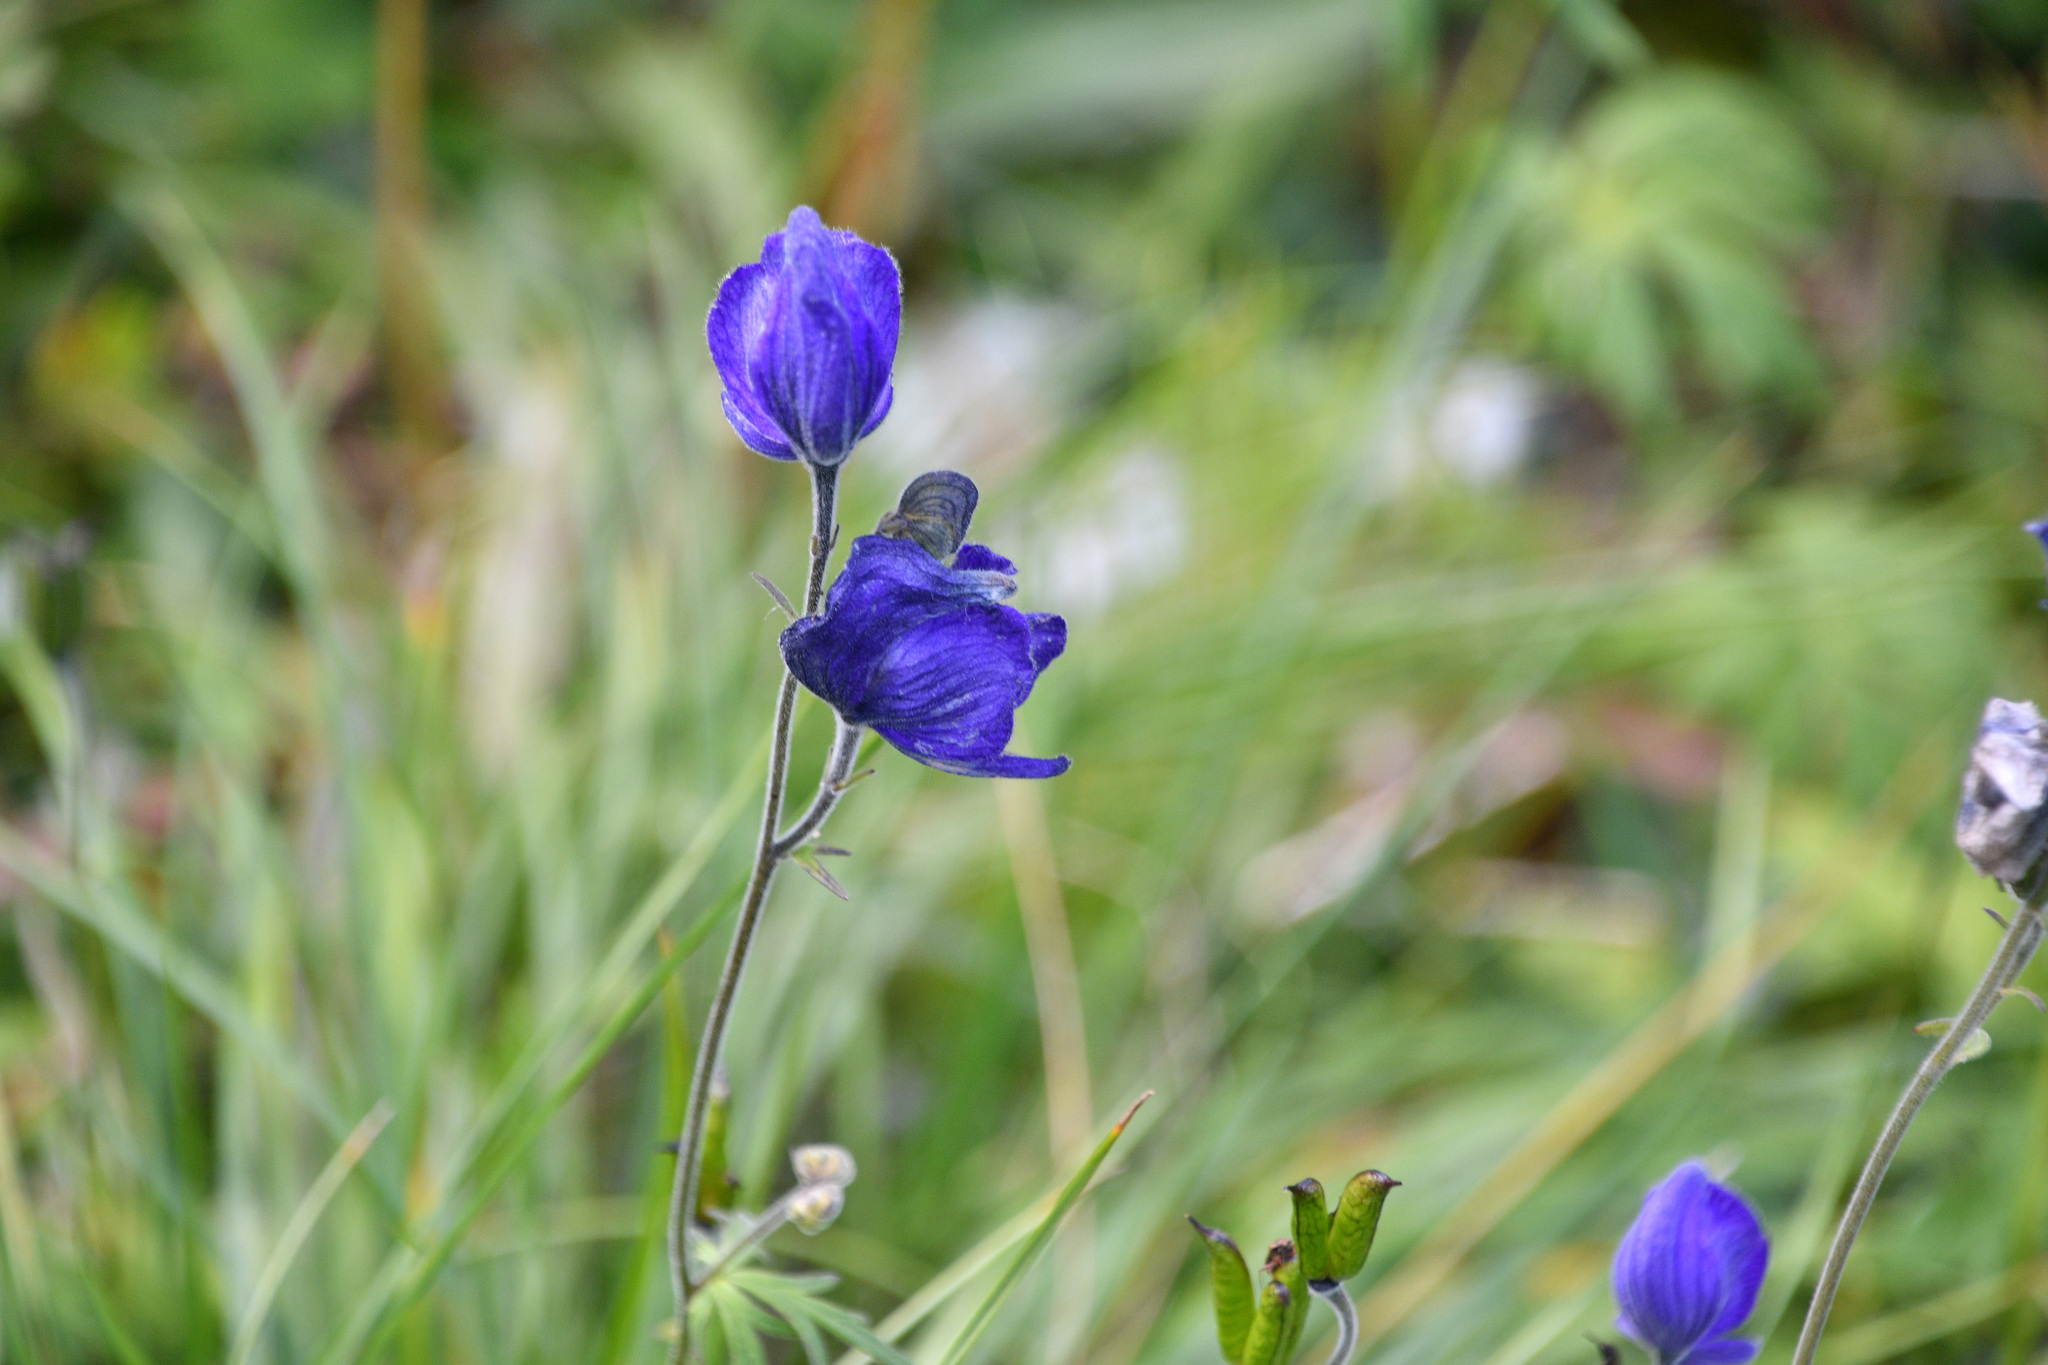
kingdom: Plantae
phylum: Tracheophyta
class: Magnoliopsida
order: Ranunculales
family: Ranunculaceae
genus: Aconitum
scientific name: Aconitum delphiniifolium
